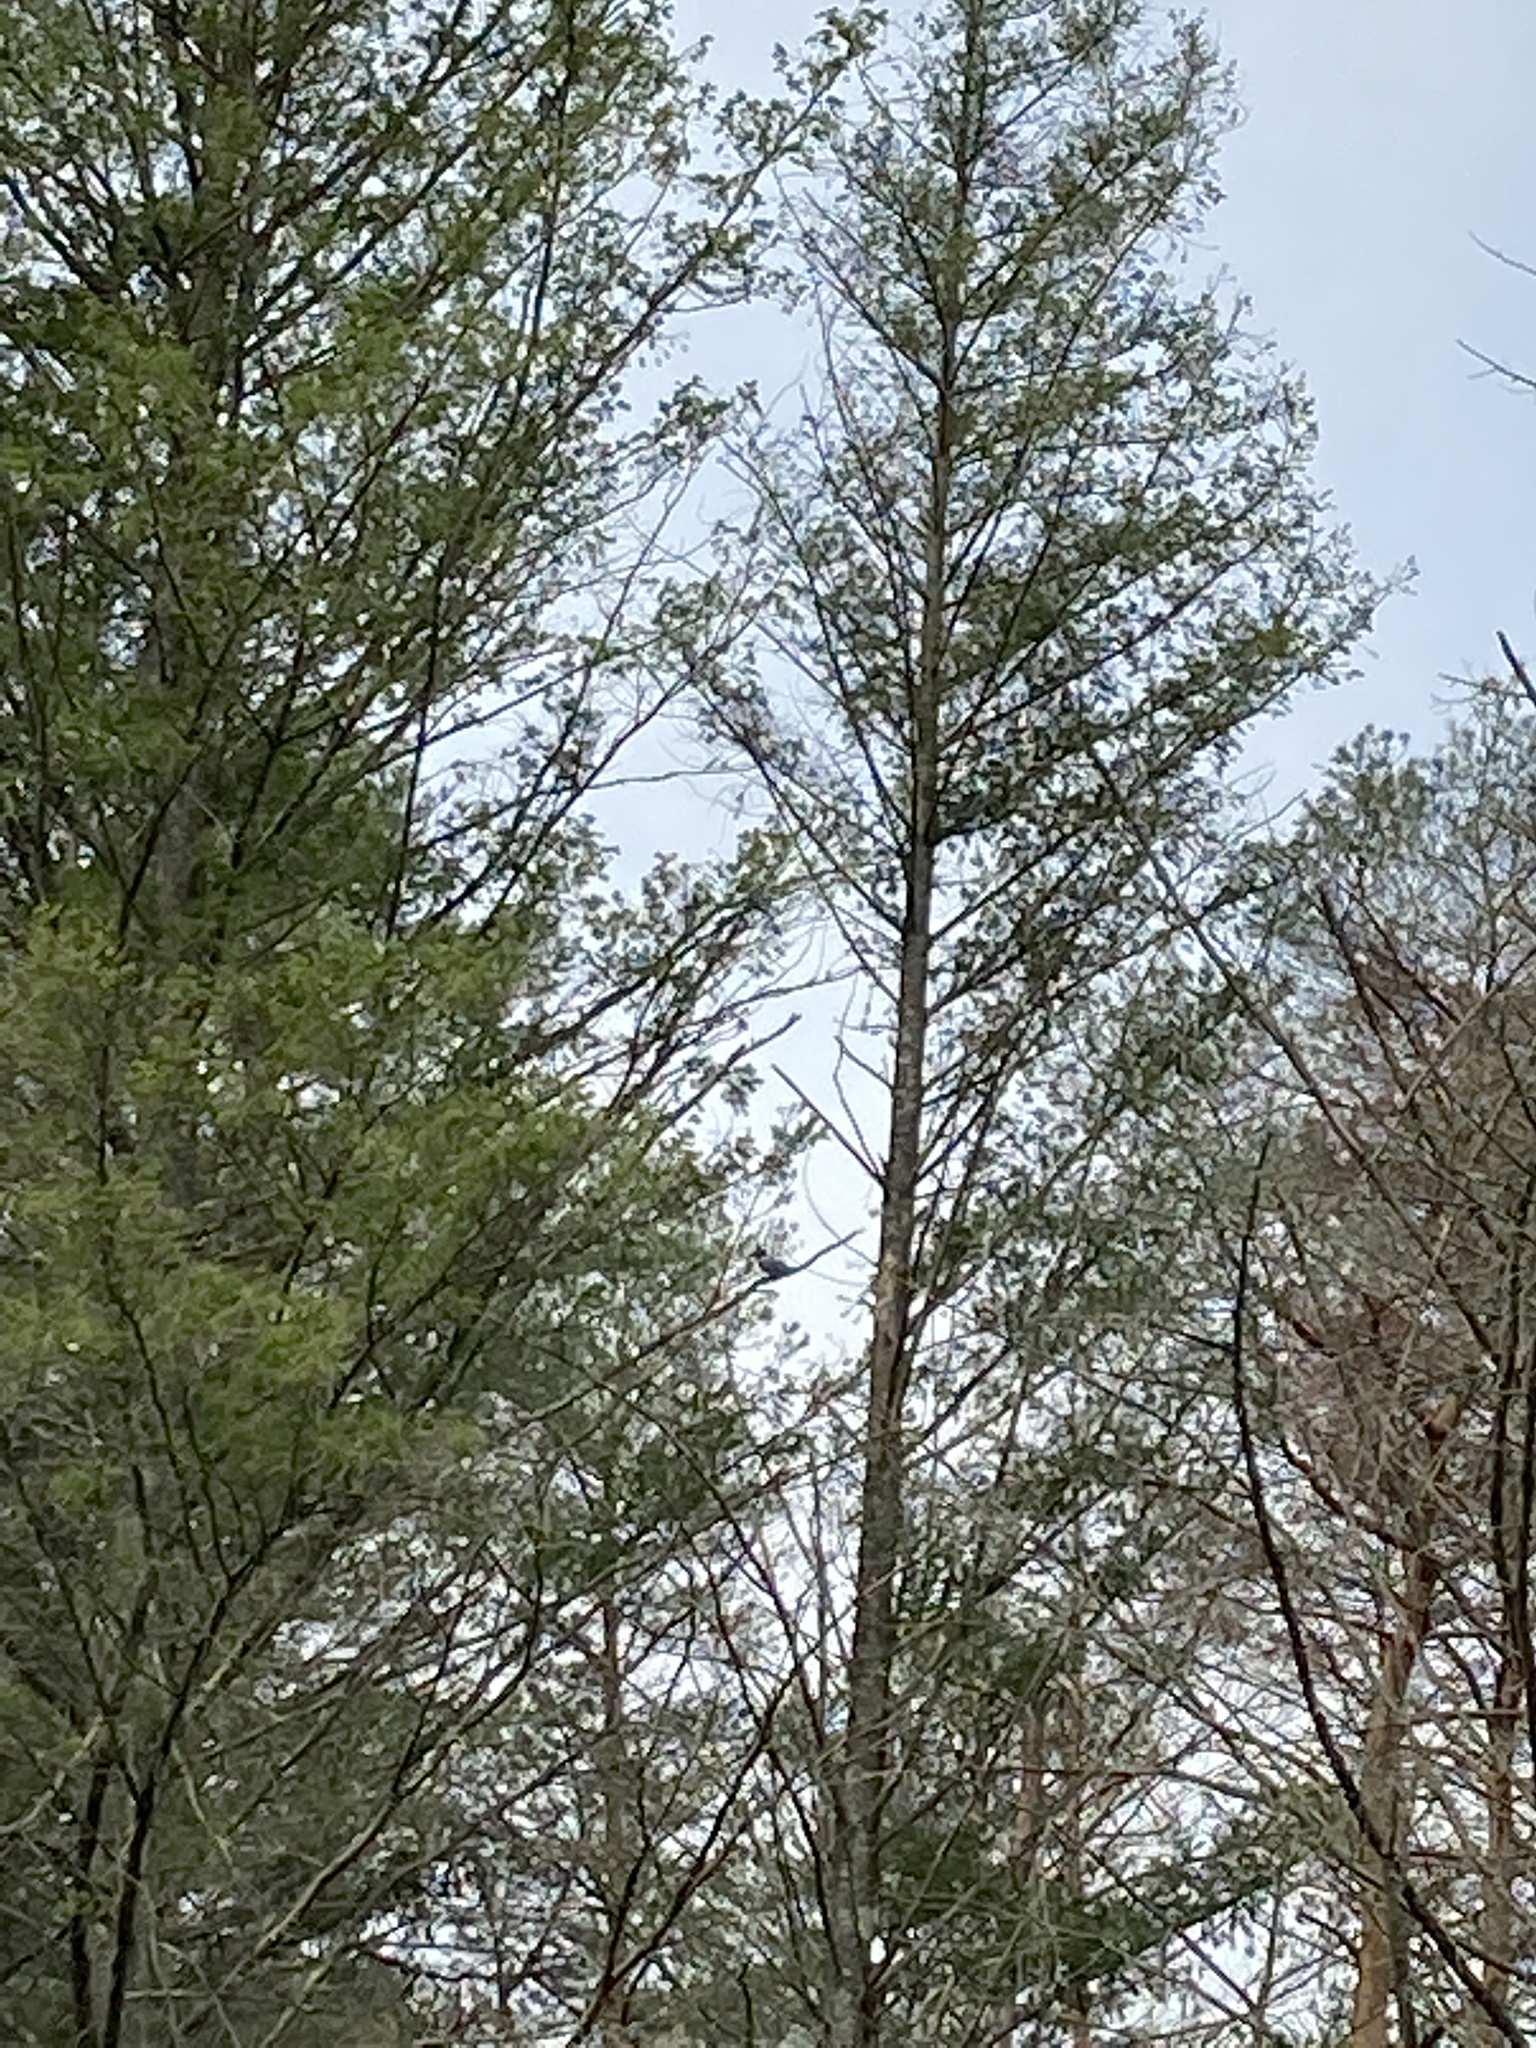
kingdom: Animalia
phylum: Chordata
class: Aves
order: Coraciiformes
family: Alcedinidae
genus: Megaceryle
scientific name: Megaceryle alcyon
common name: Belted kingfisher
